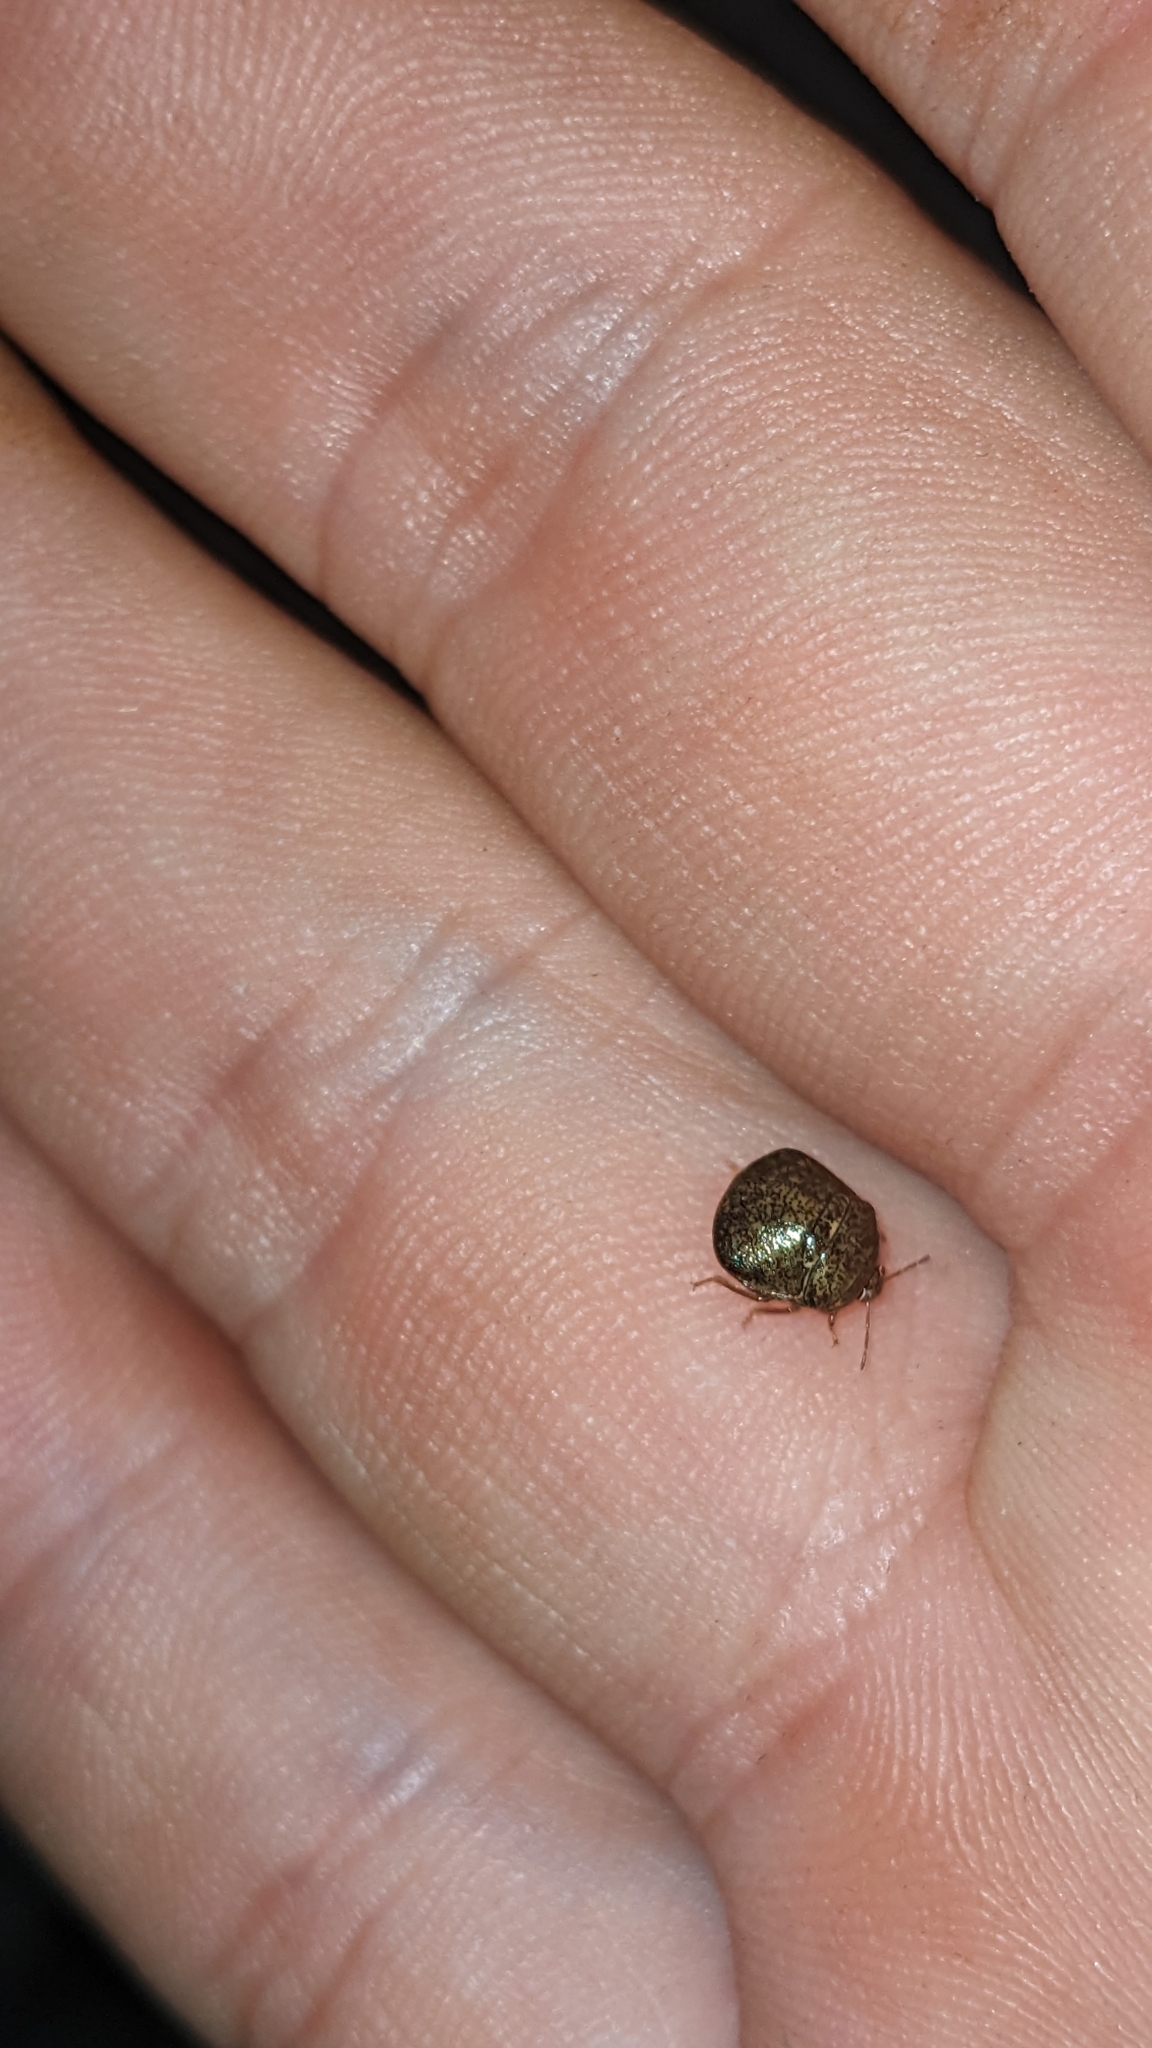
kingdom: Animalia
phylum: Arthropoda
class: Insecta
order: Hemiptera
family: Plataspidae
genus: Megacopta
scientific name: Megacopta cribraria
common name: Bean plataspid
